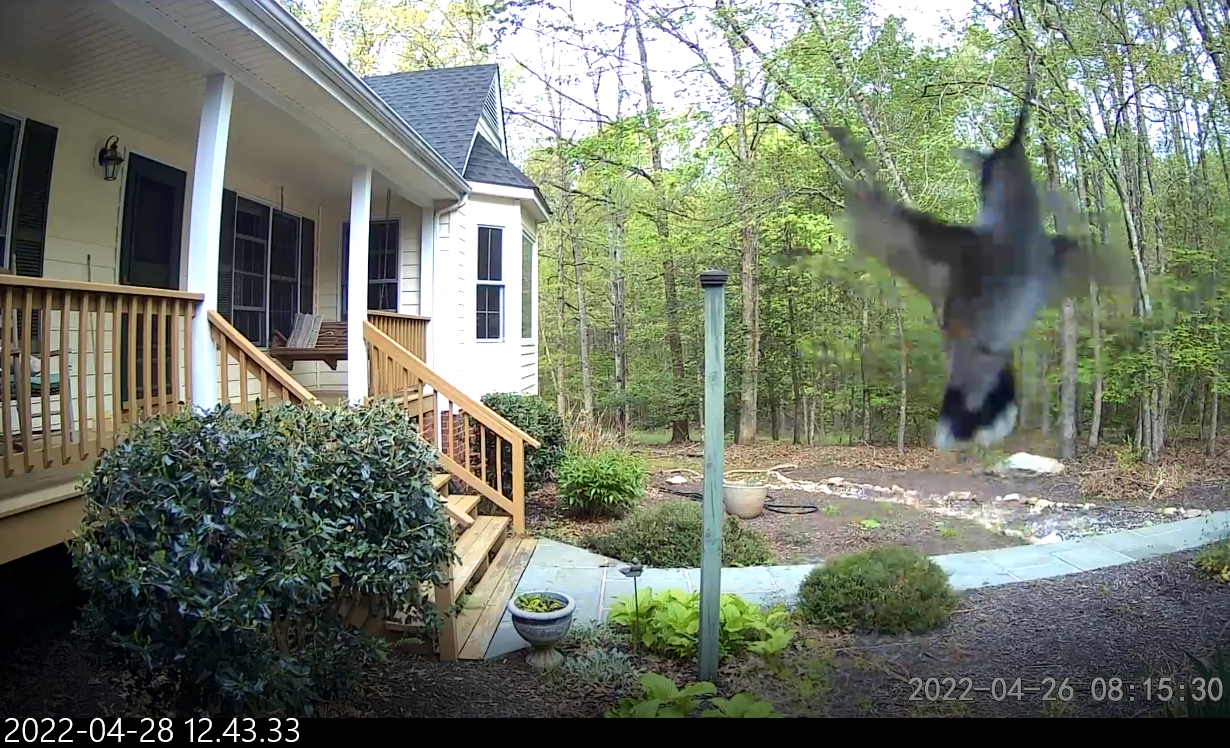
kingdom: Animalia
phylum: Chordata
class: Aves
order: Apodiformes
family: Trochilidae
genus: Archilochus
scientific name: Archilochus colubris
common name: Ruby-throated hummingbird
